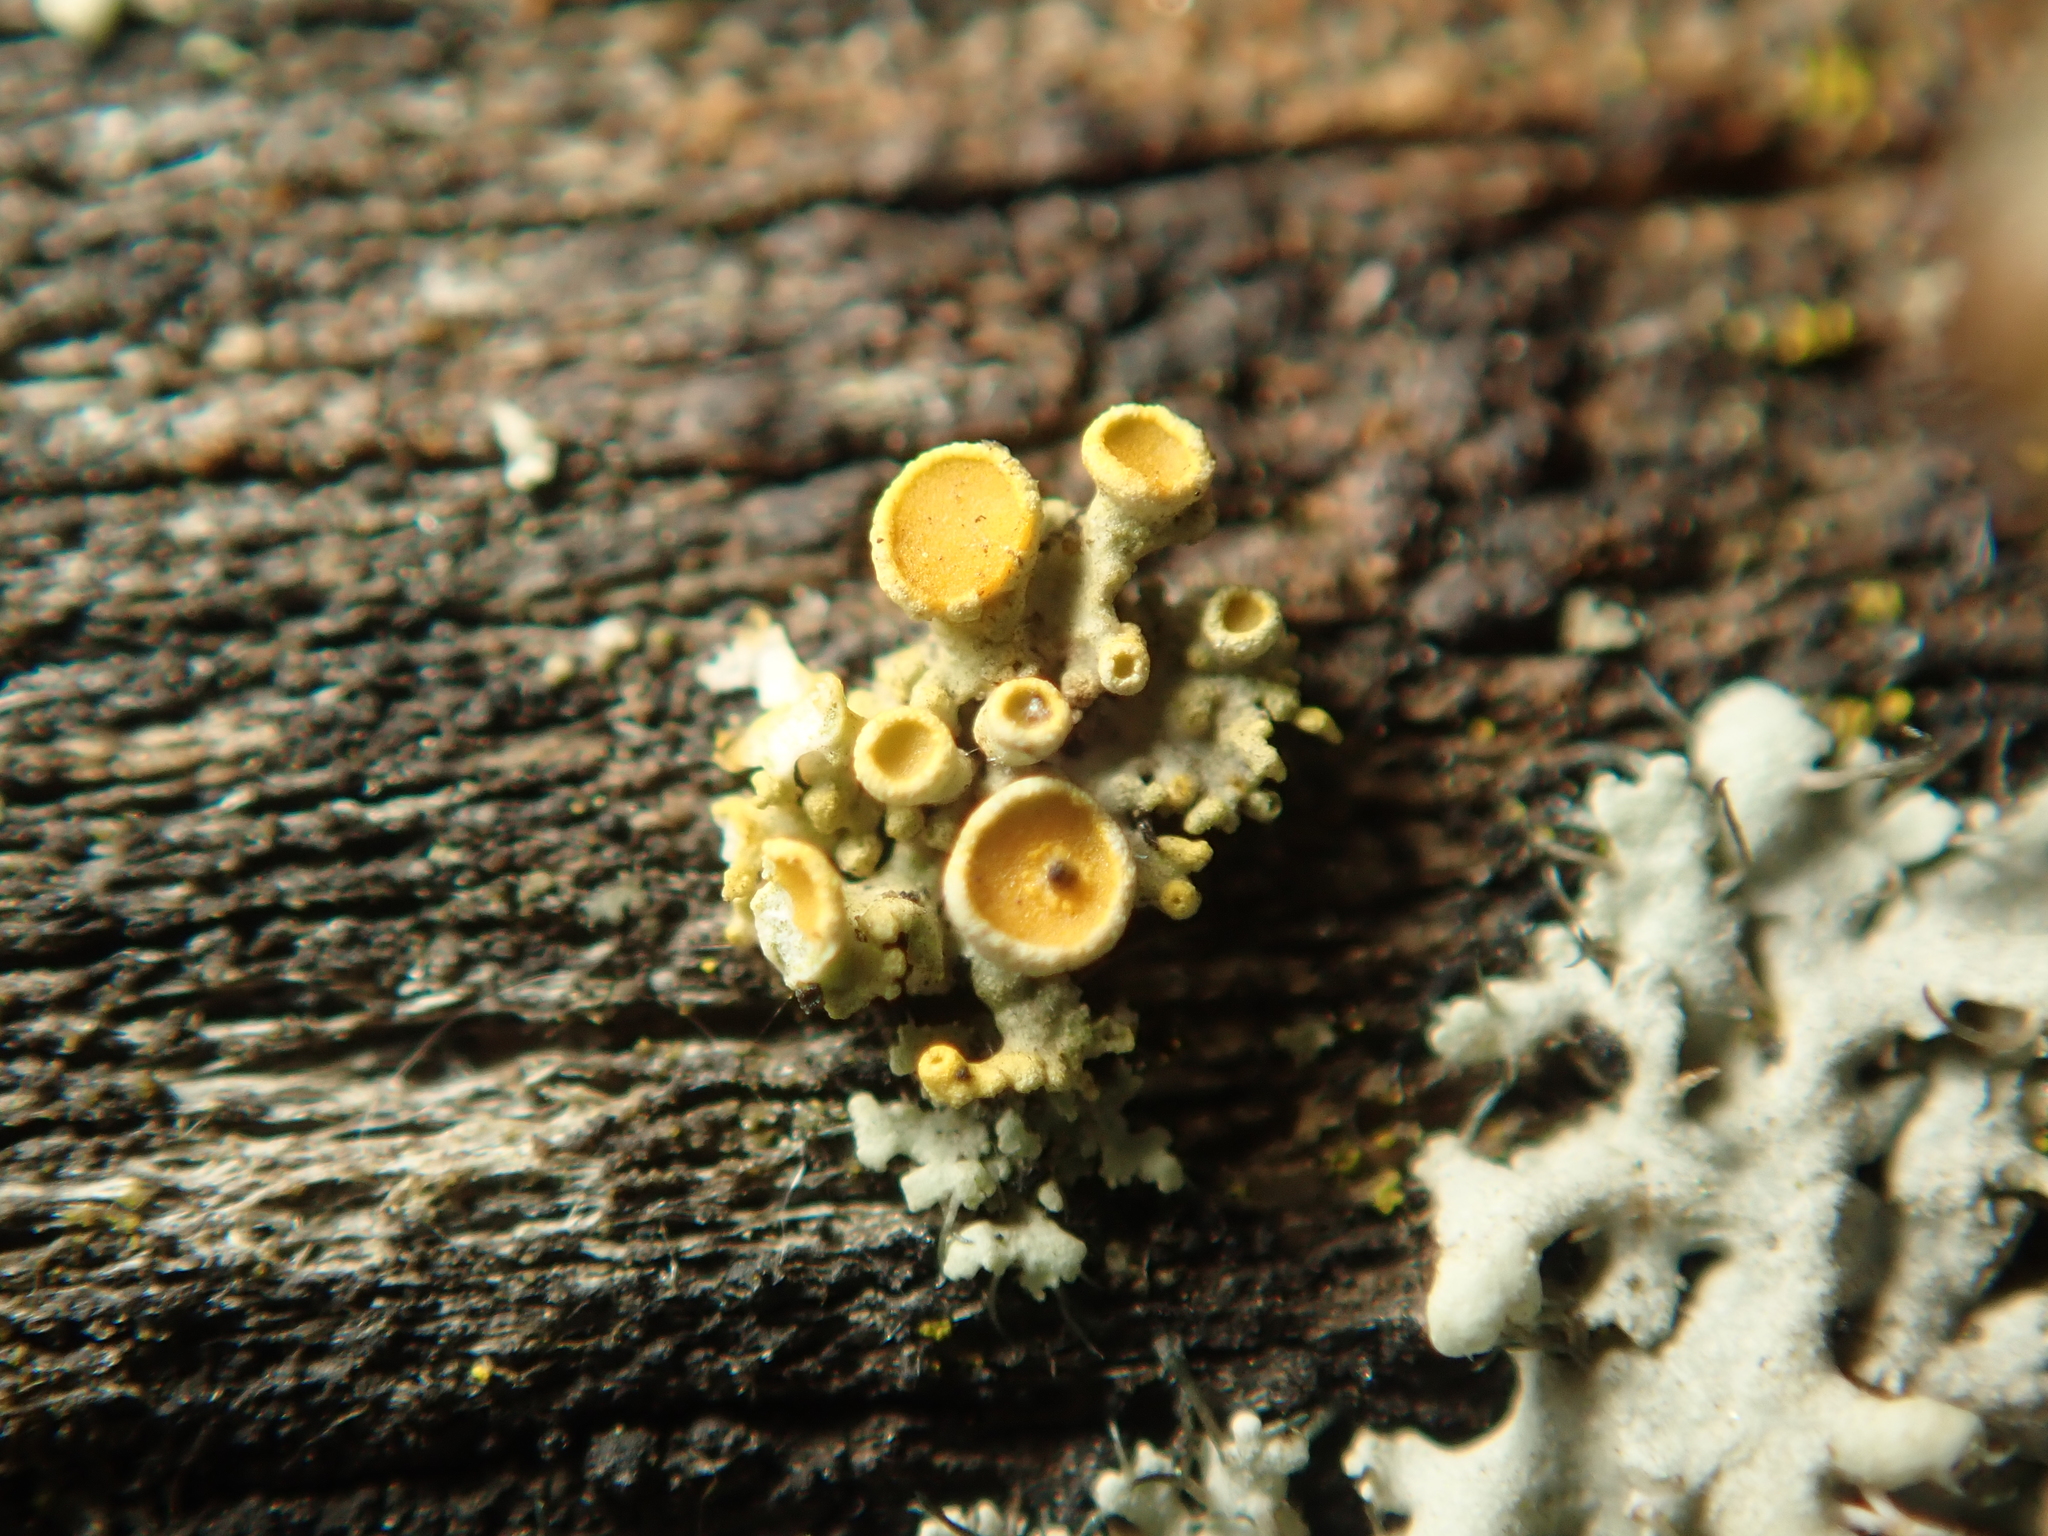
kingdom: Fungi
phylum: Ascomycota
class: Lecanoromycetes
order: Teloschistales
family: Teloschistaceae
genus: Polycauliona
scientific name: Polycauliona polycarpa
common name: Pin-cushion sunburst lichen
